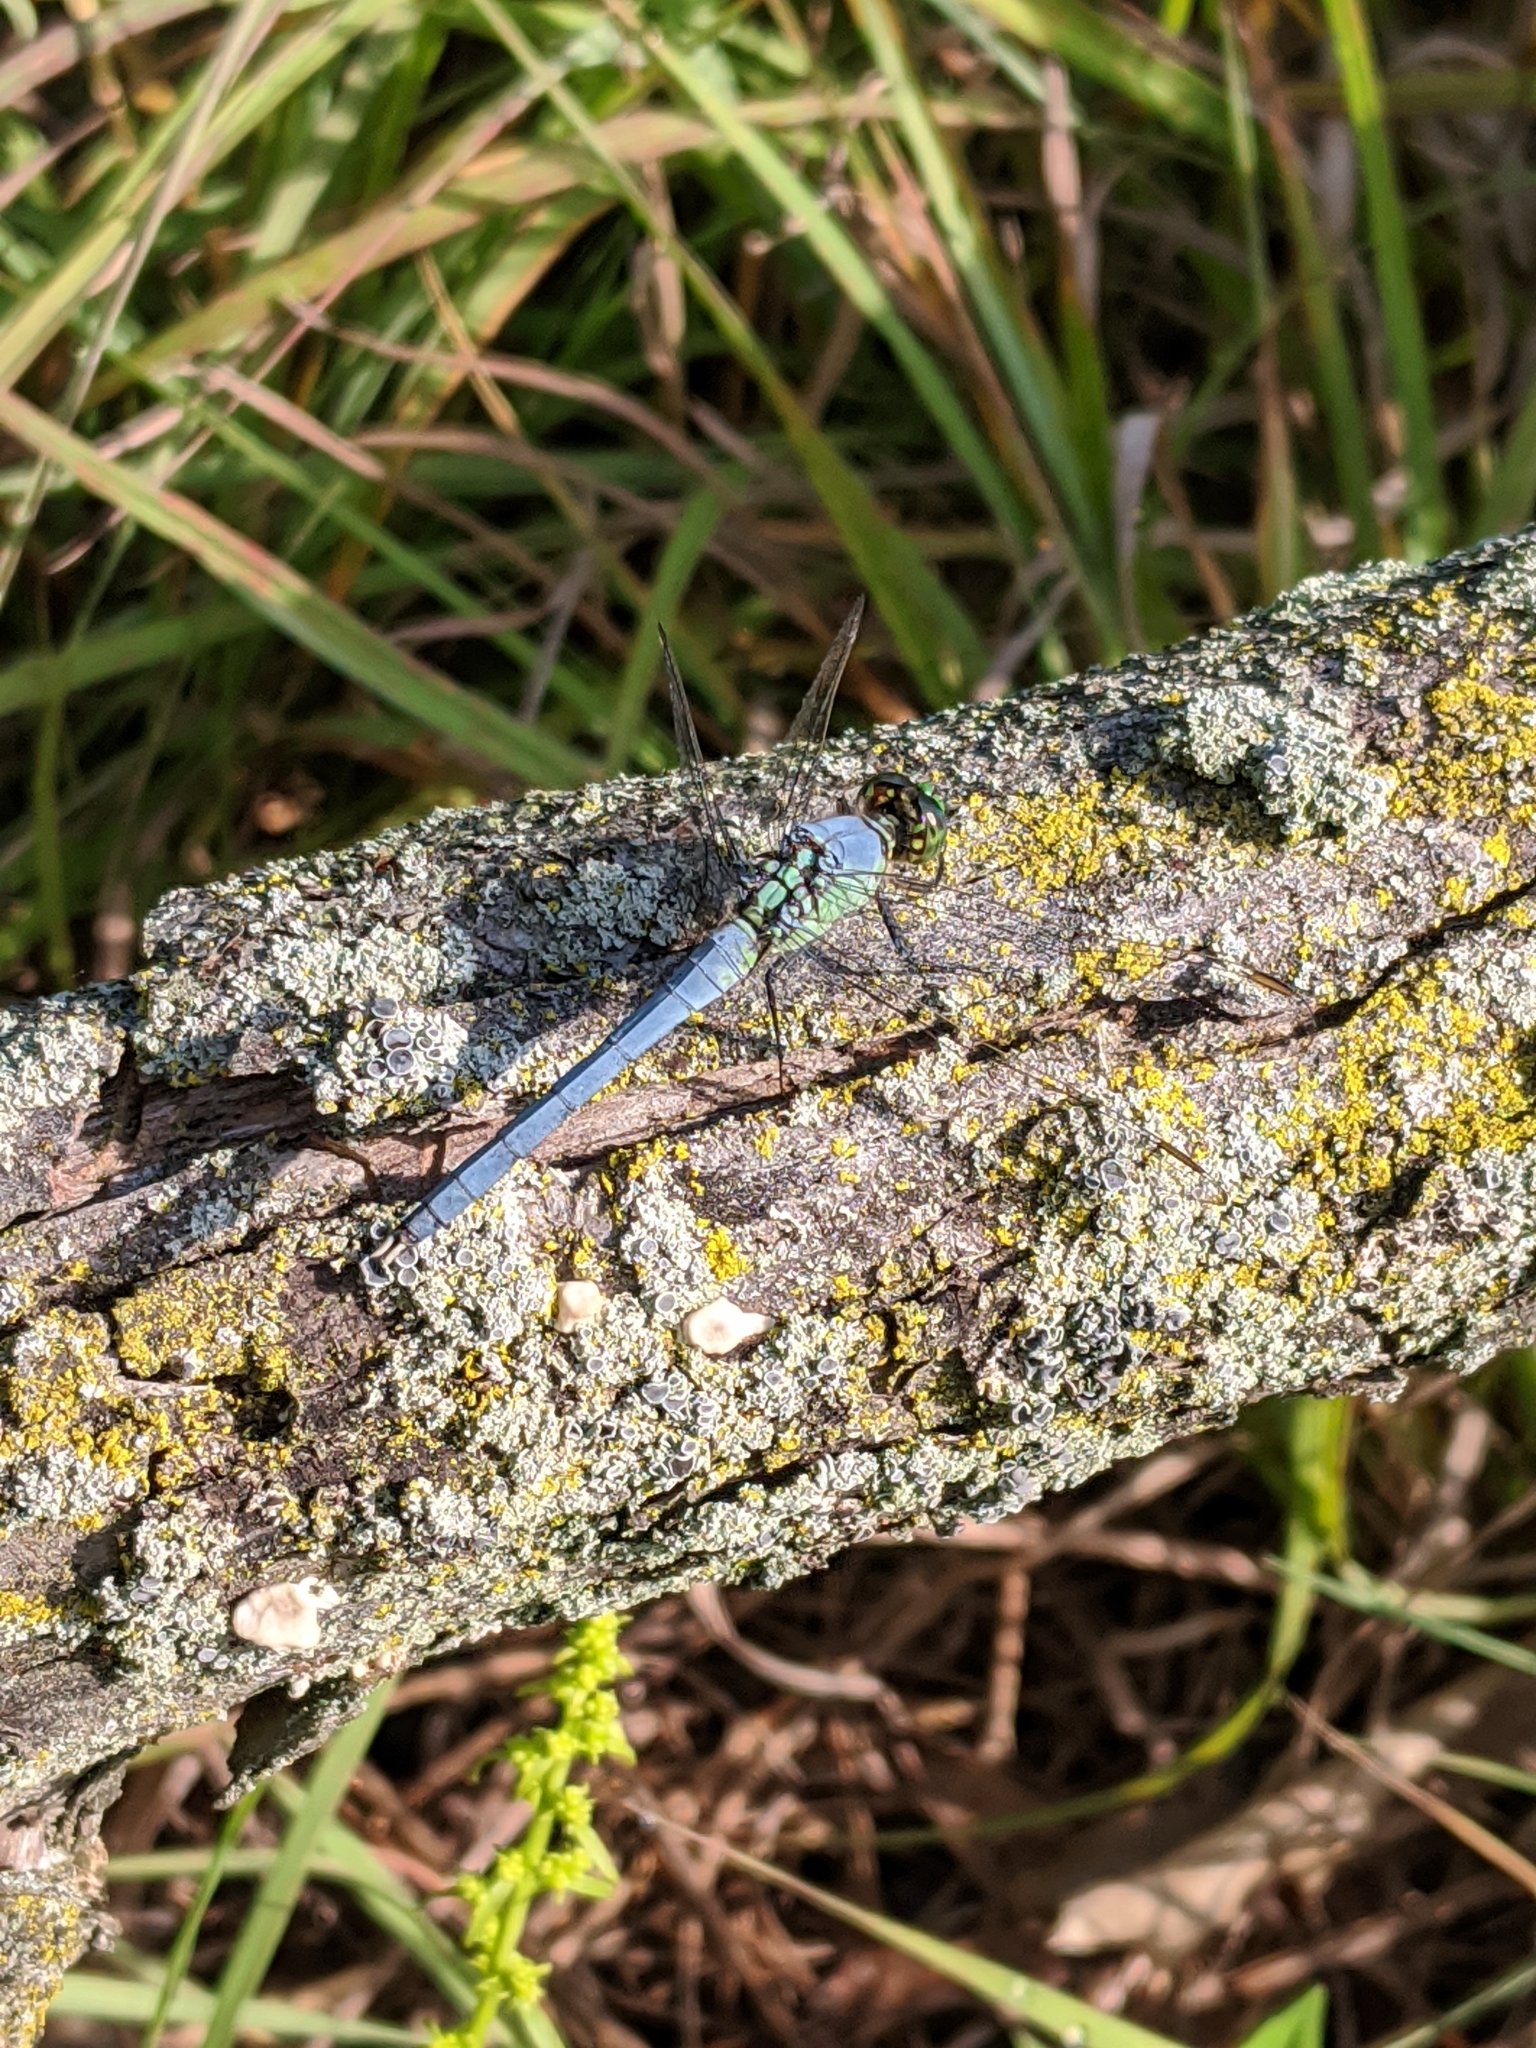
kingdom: Animalia
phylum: Arthropoda
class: Insecta
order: Odonata
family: Libellulidae
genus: Erythemis
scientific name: Erythemis simplicicollis
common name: Eastern pondhawk
